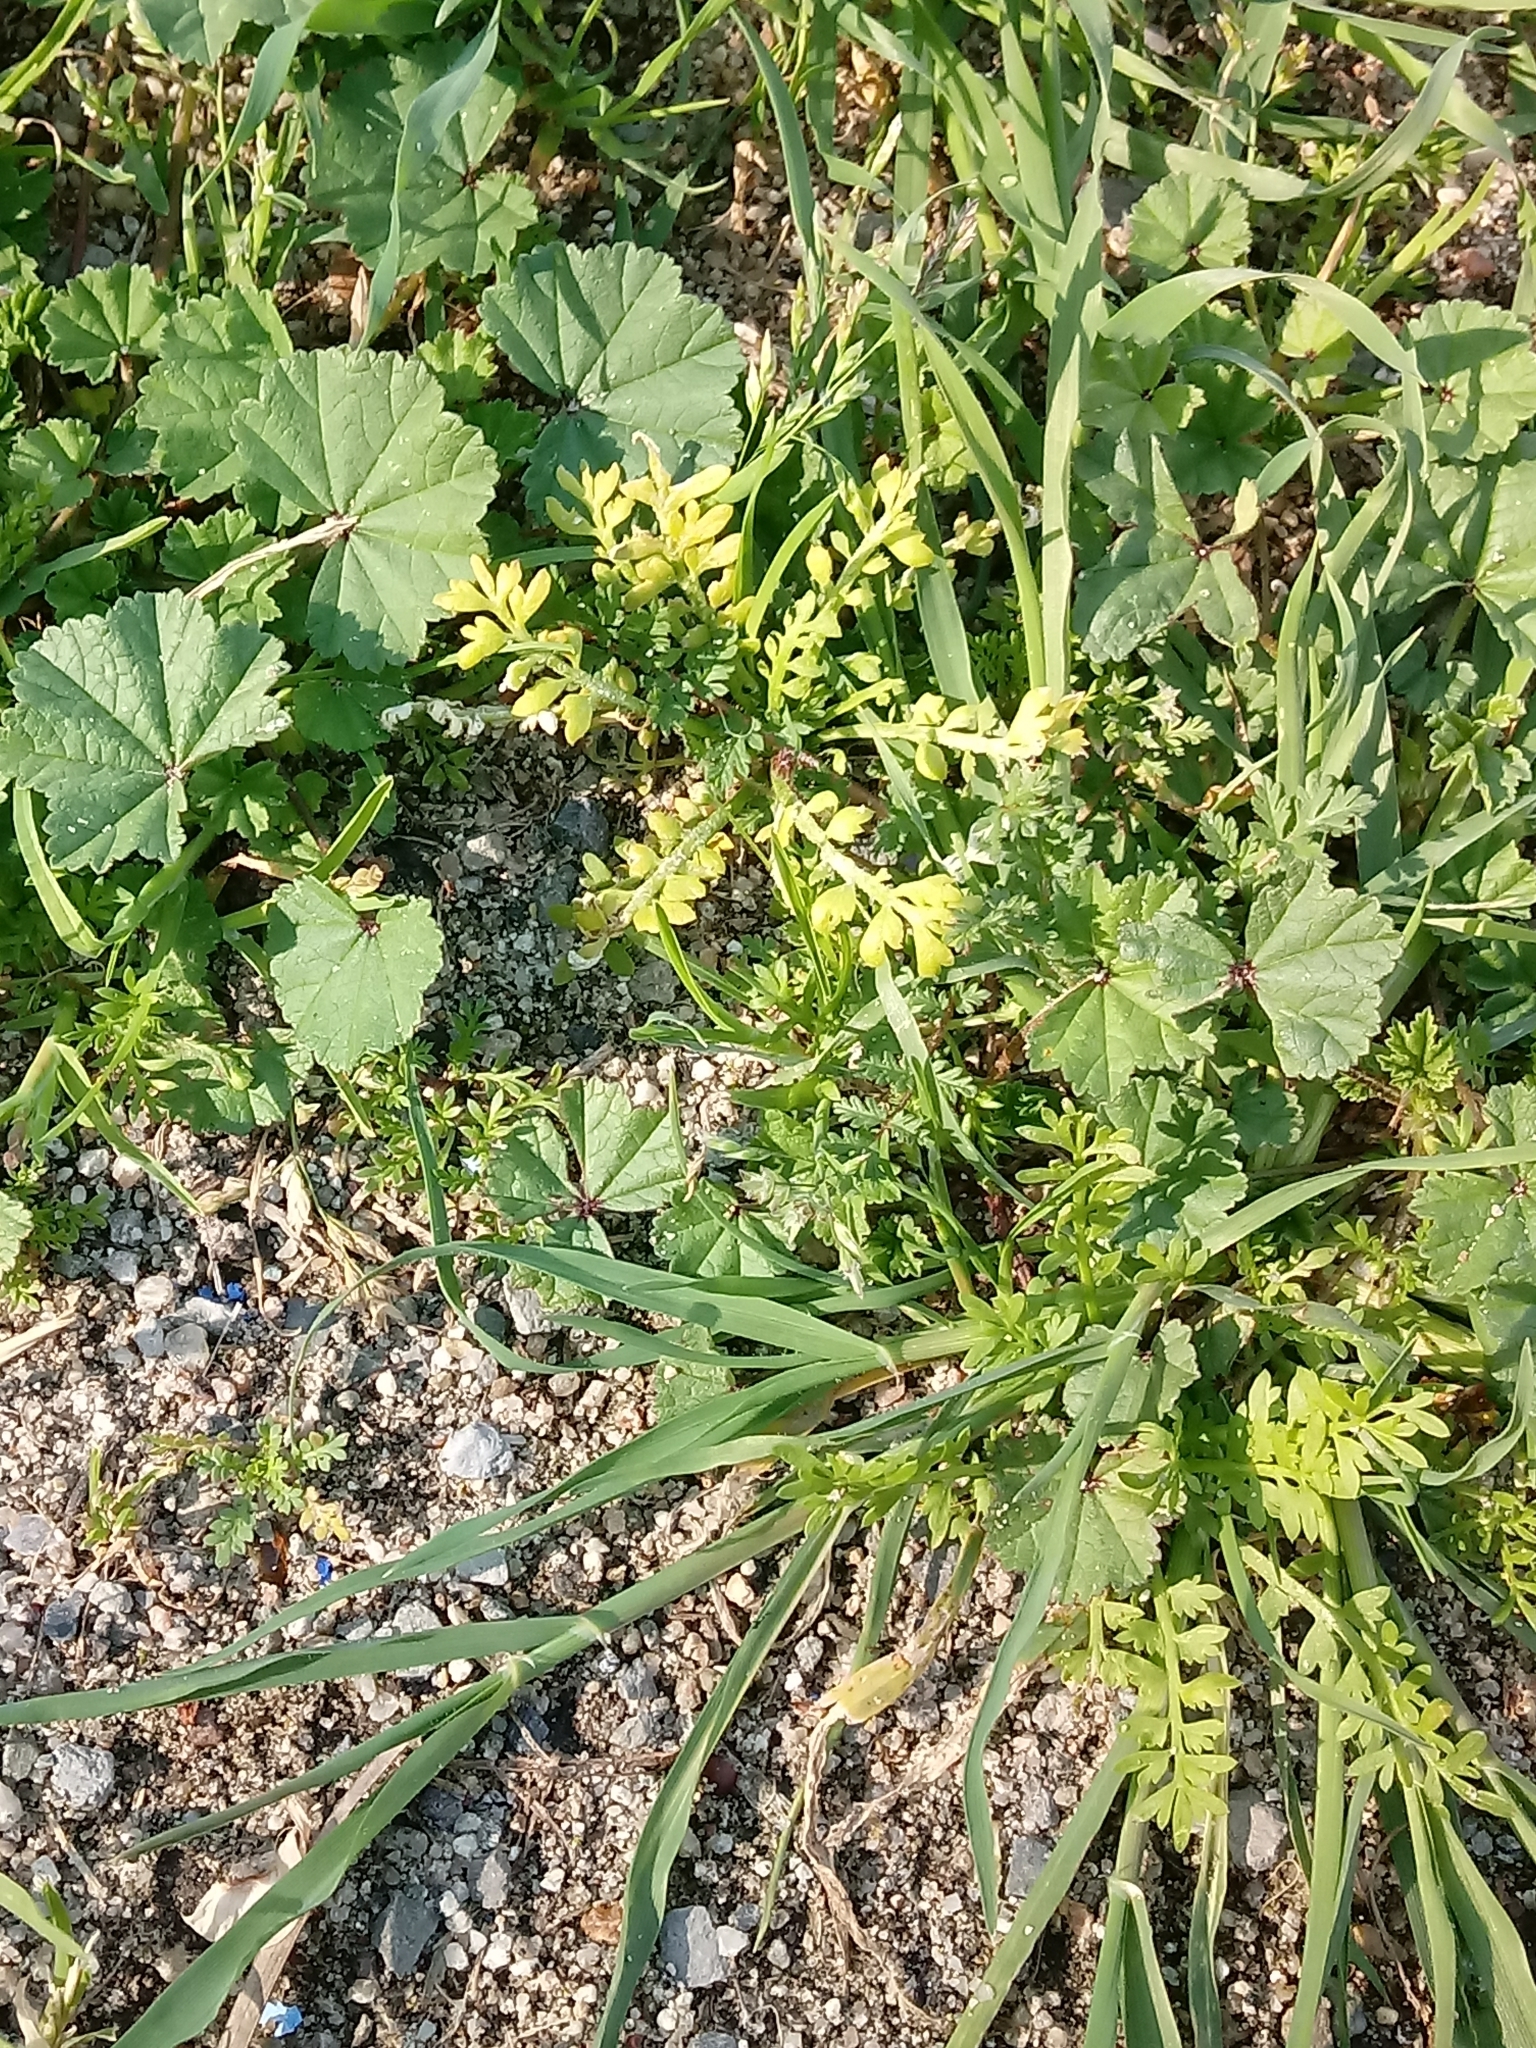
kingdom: Plantae
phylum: Tracheophyta
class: Magnoliopsida
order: Malvales
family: Malvaceae
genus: Malva
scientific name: Malva parviflora
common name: Least mallow
